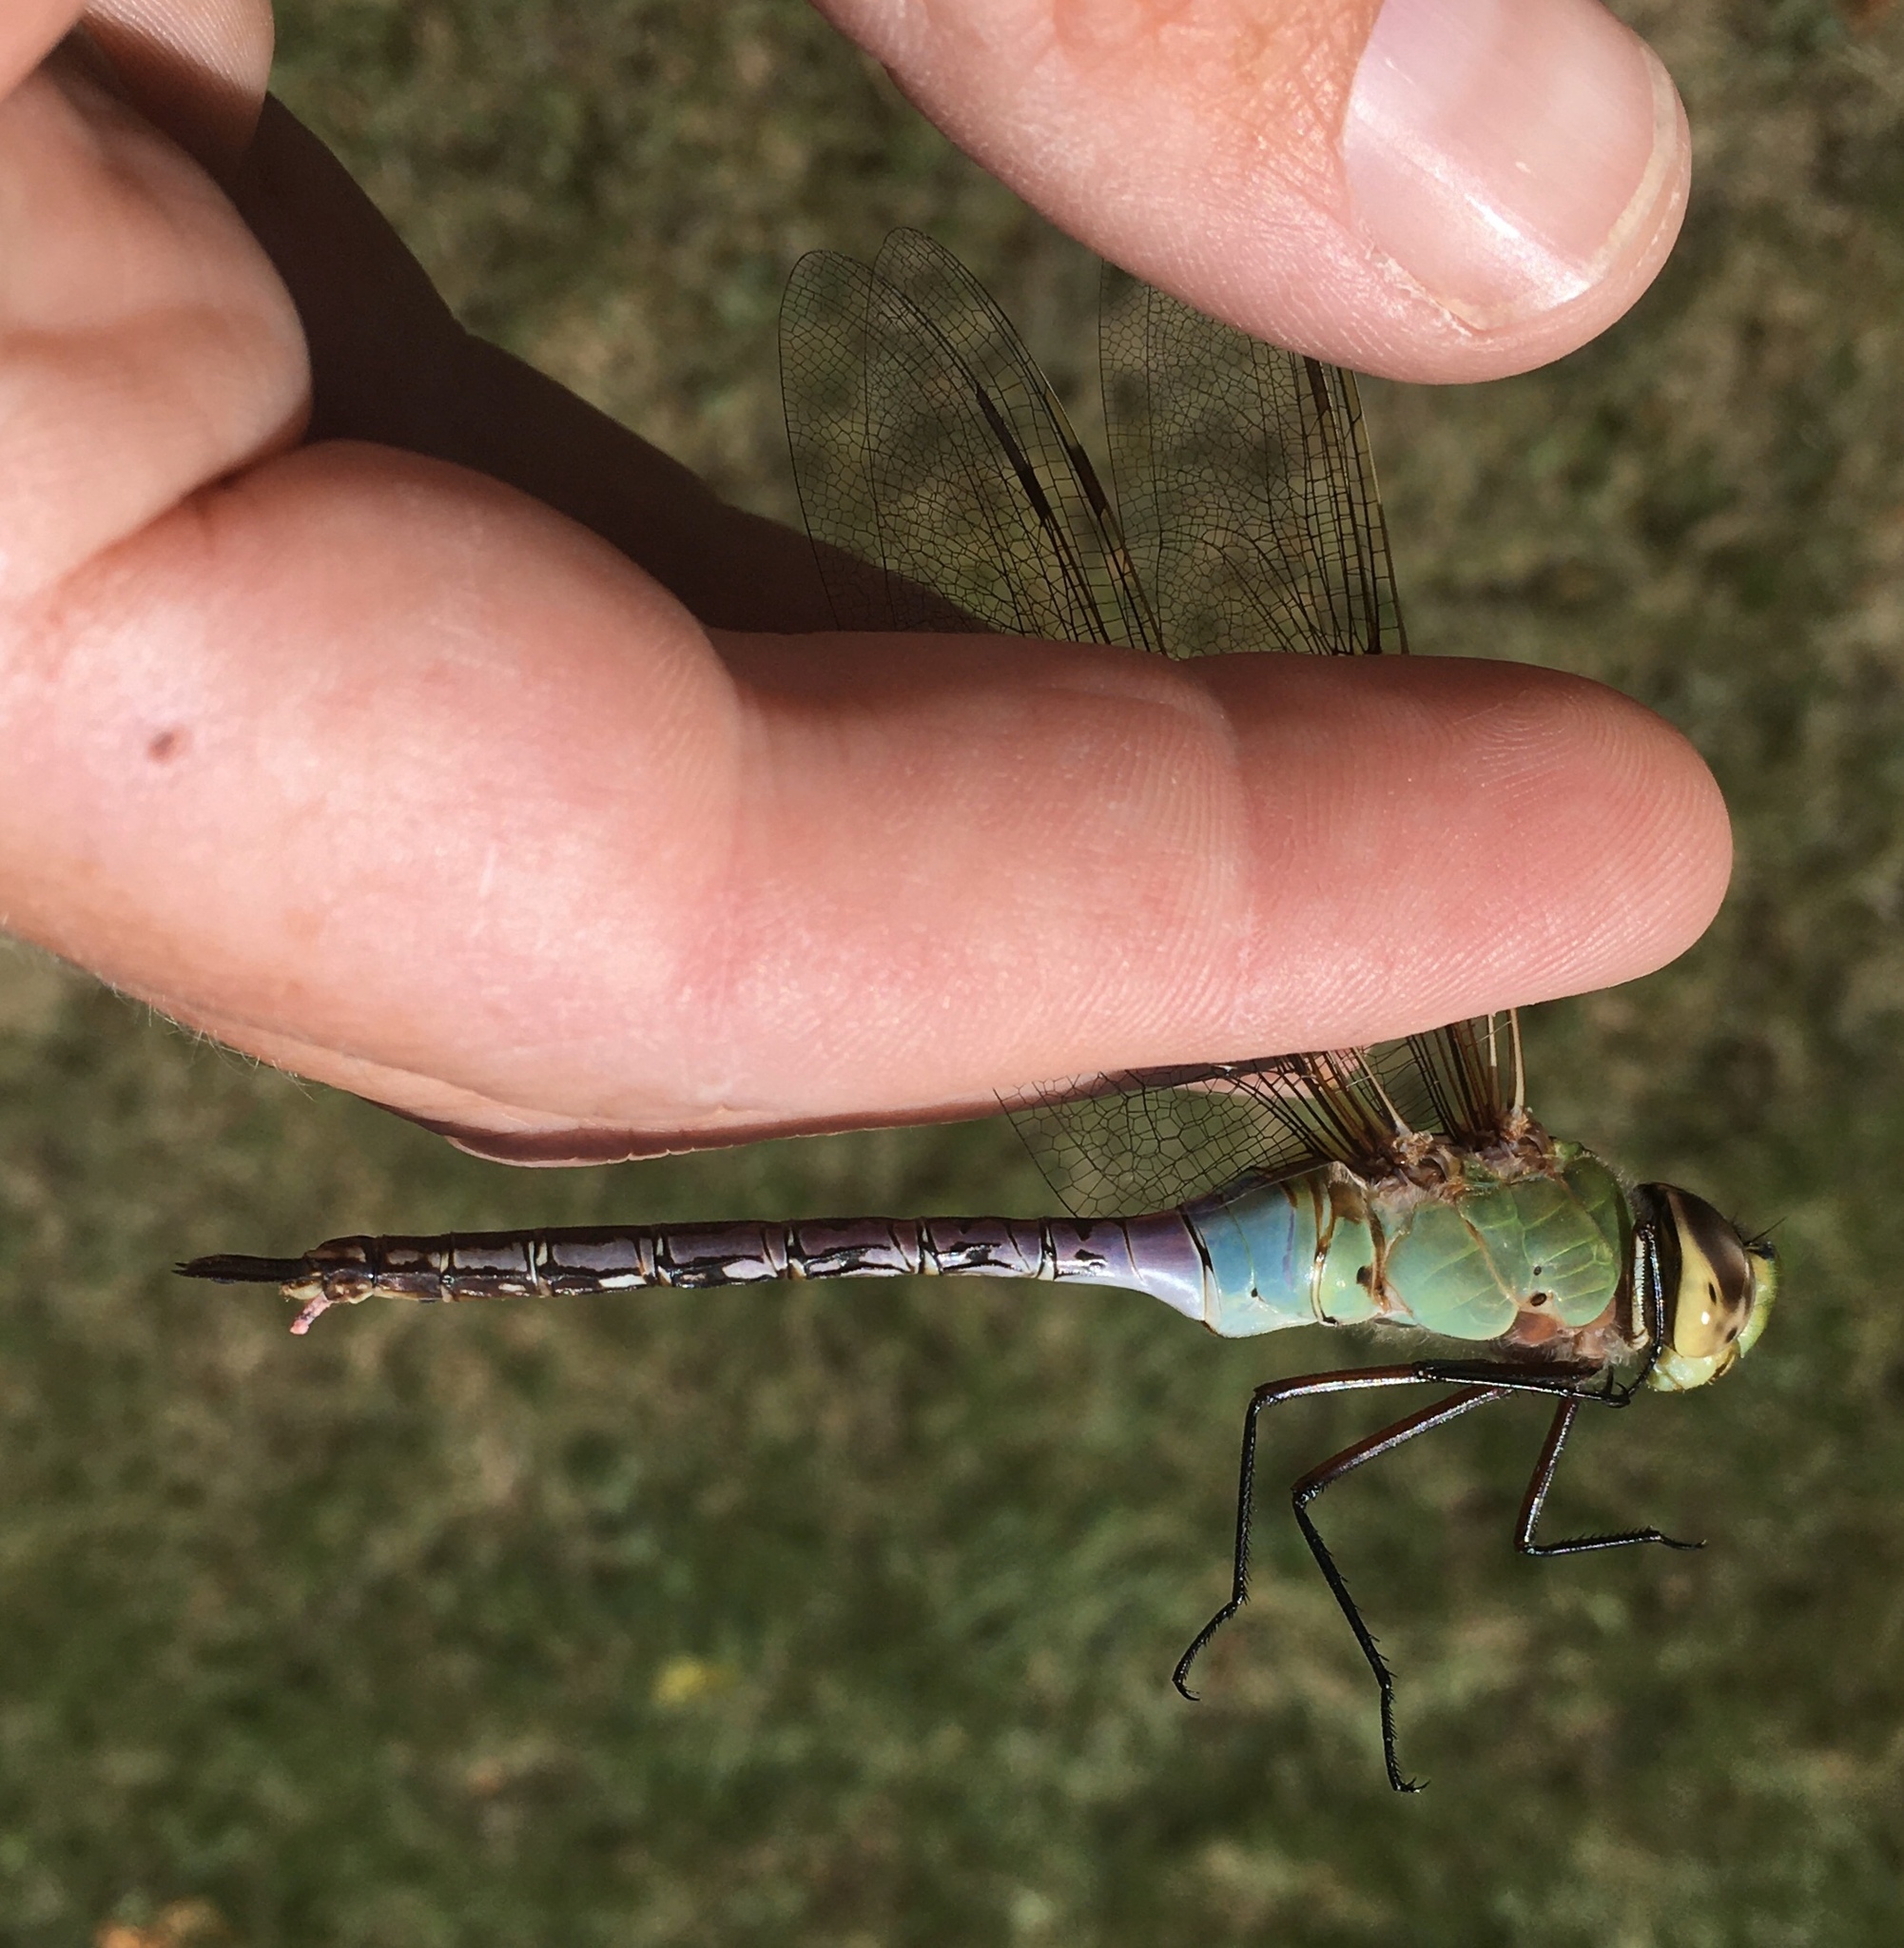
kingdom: Animalia
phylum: Arthropoda
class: Insecta
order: Odonata
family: Aeshnidae
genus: Anax
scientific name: Anax junius
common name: Common green darner
